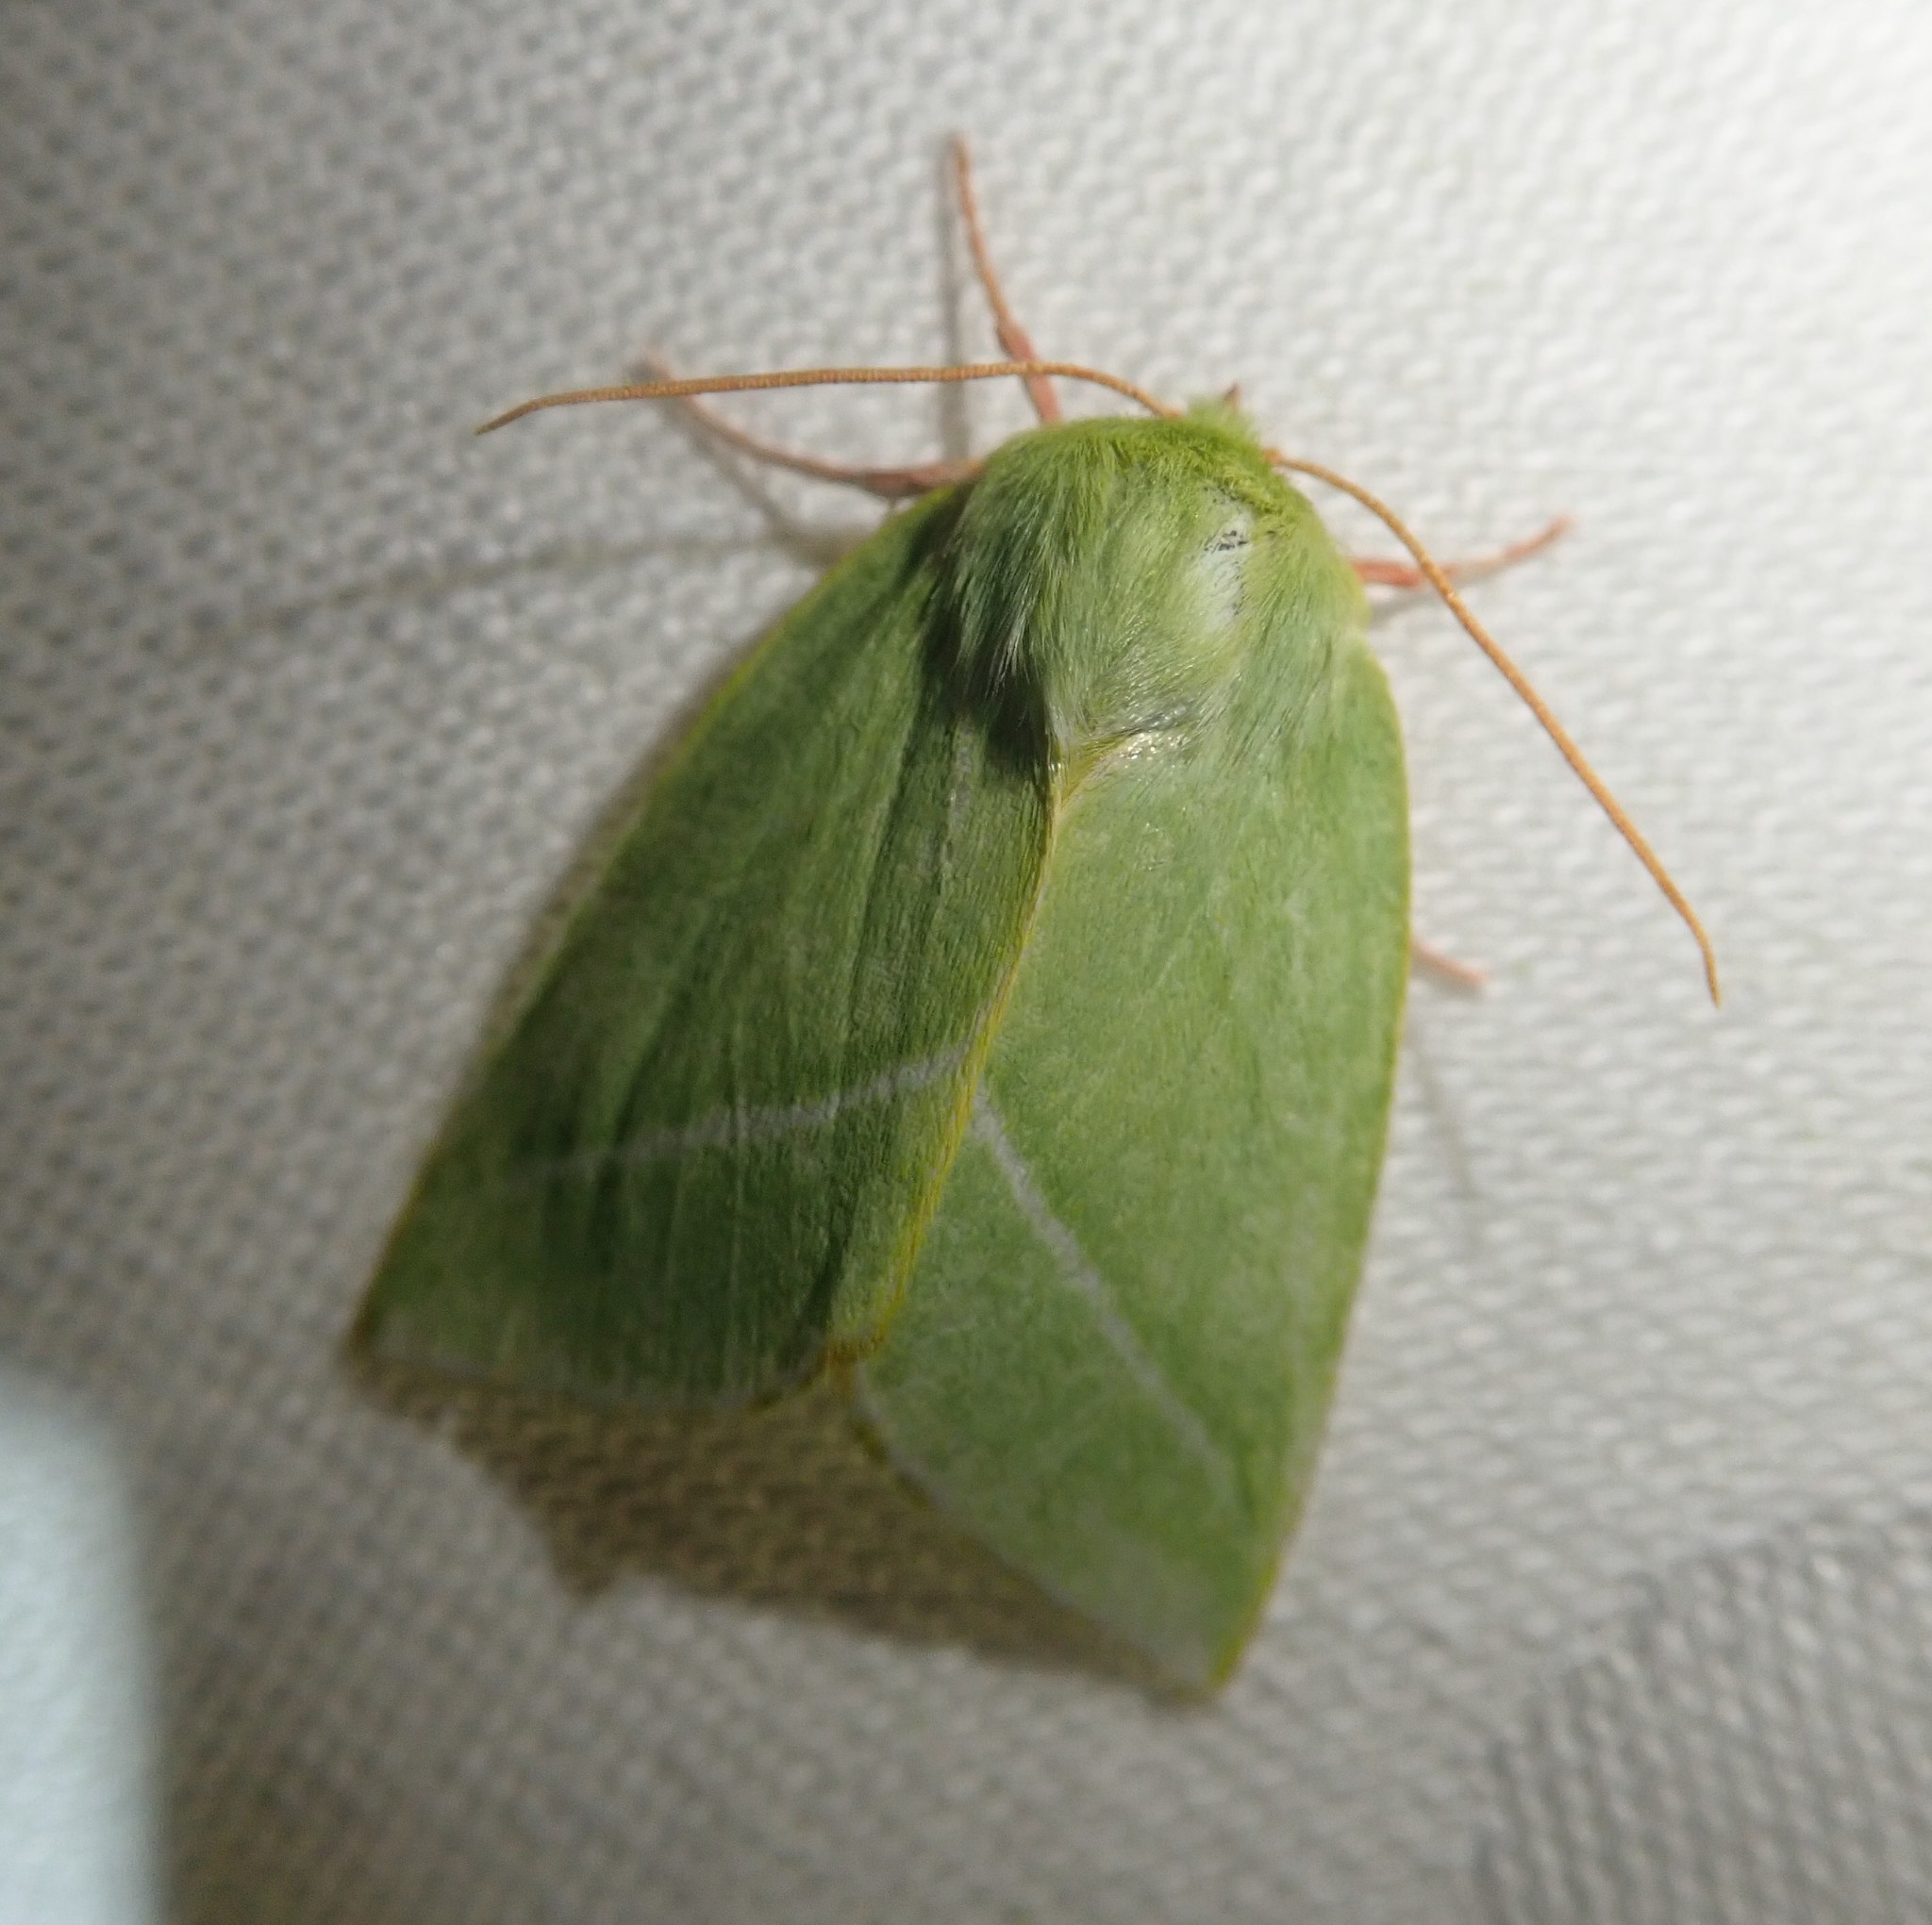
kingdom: Animalia
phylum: Arthropoda
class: Insecta
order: Lepidoptera
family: Nolidae
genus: Pseudoips
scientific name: Pseudoips prasinana
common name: Green silver-lines
